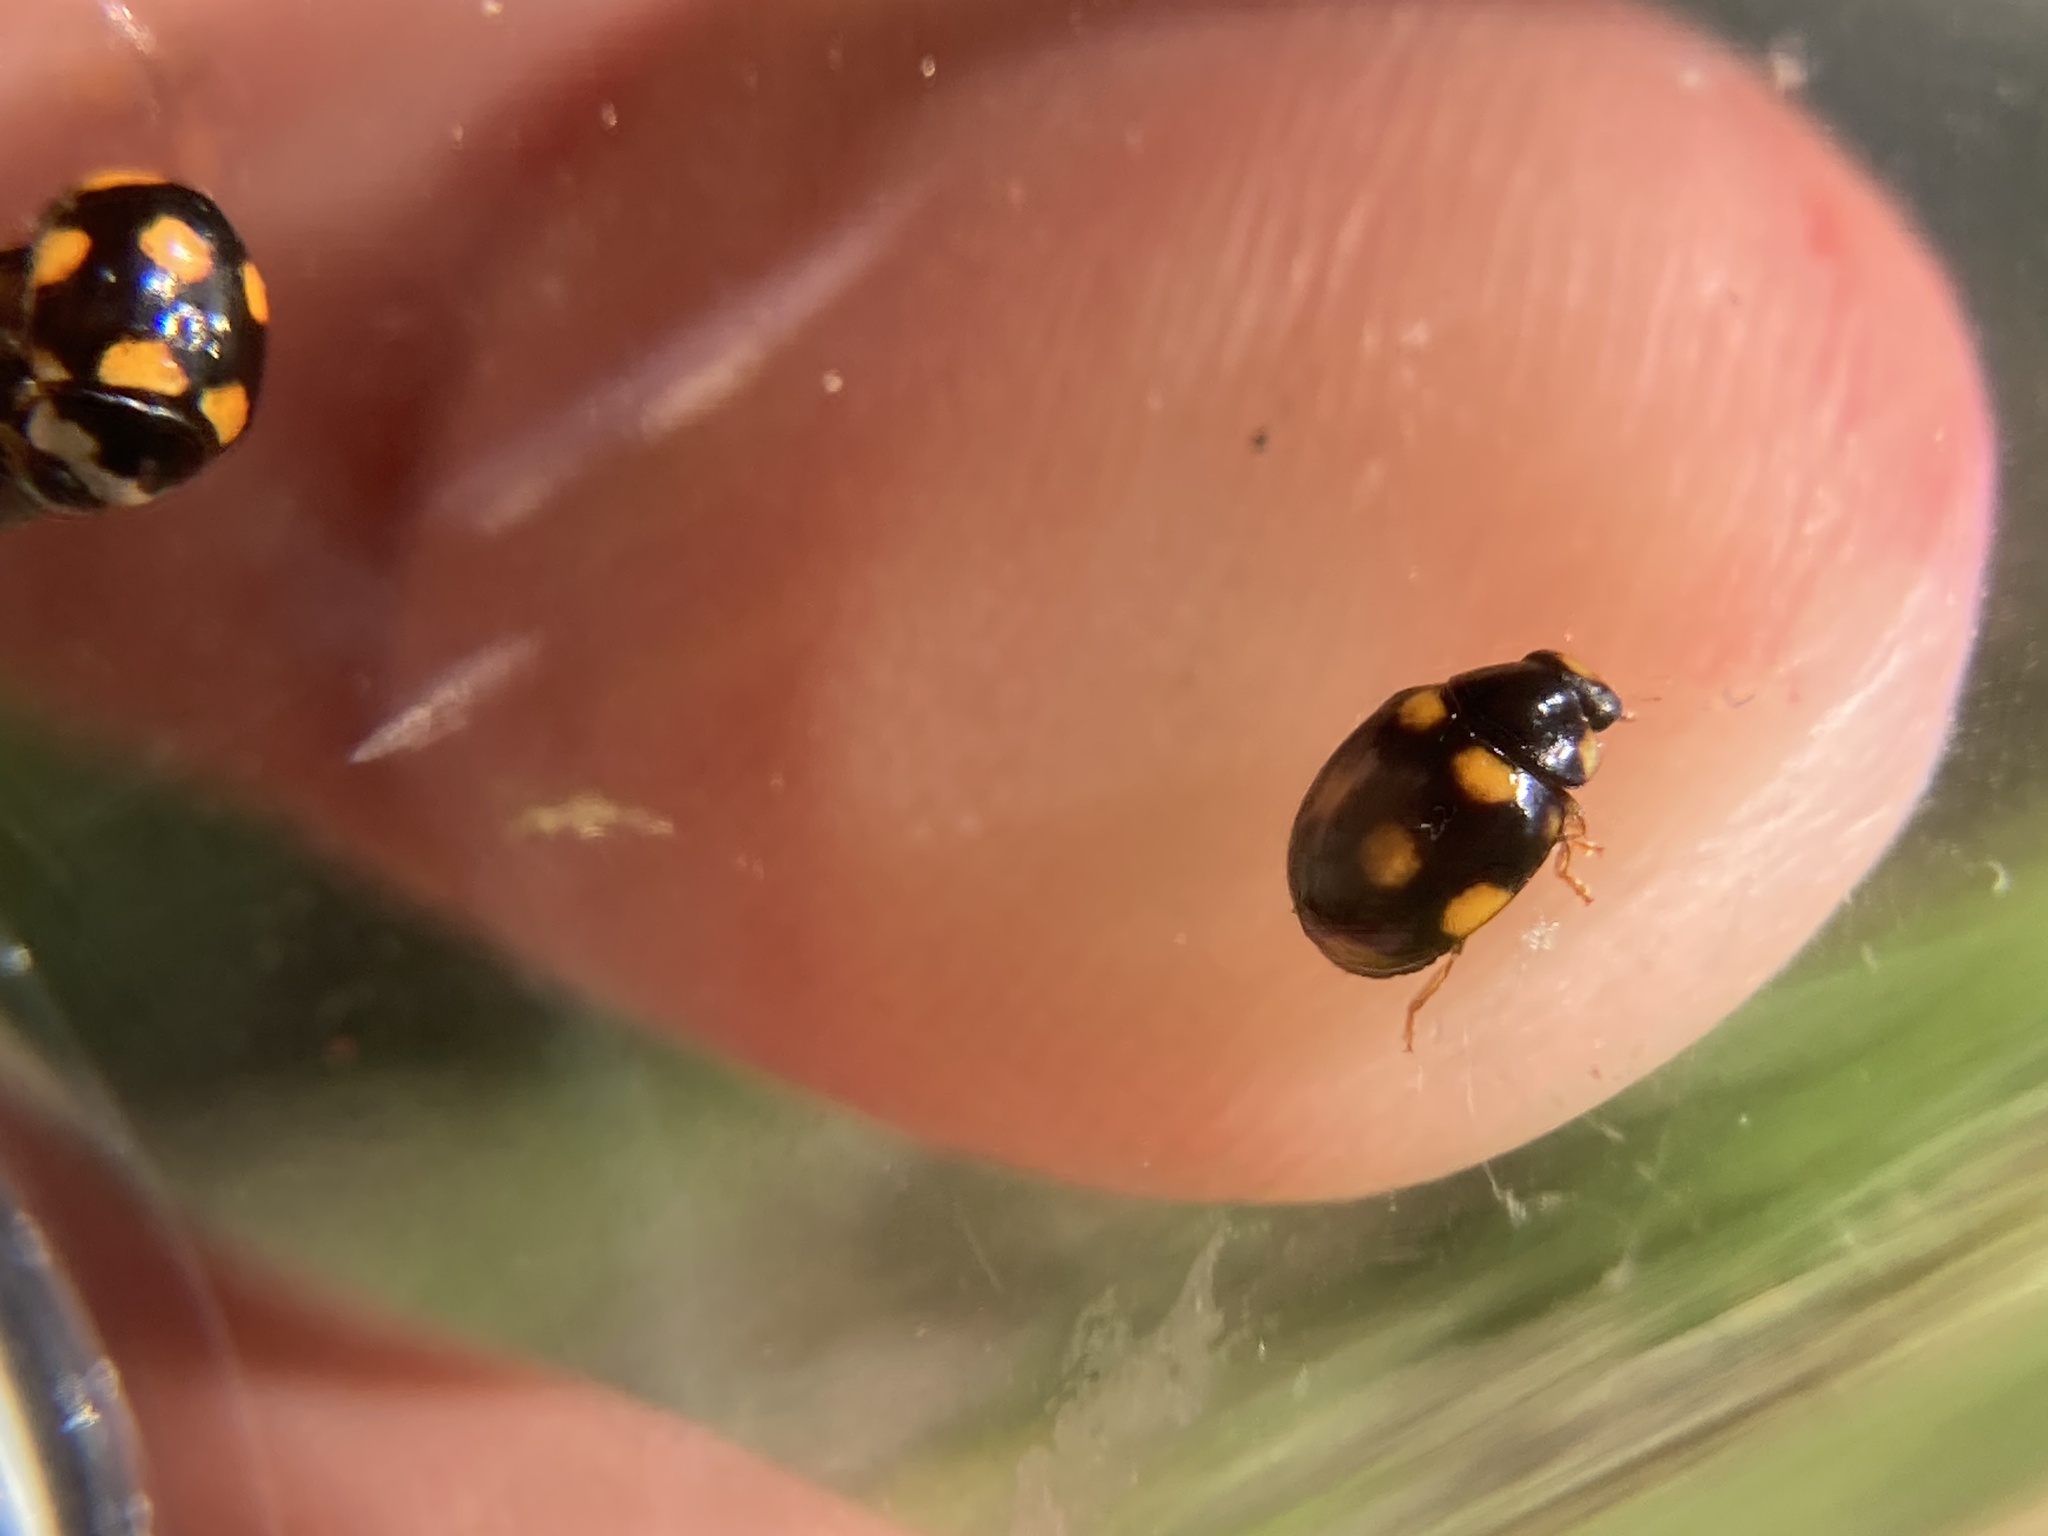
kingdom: Animalia
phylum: Arthropoda
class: Insecta
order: Coleoptera
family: Coccinellidae
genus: Brachiacantha
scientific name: Brachiacantha ursina
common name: Ursine spurleg lady beetle
